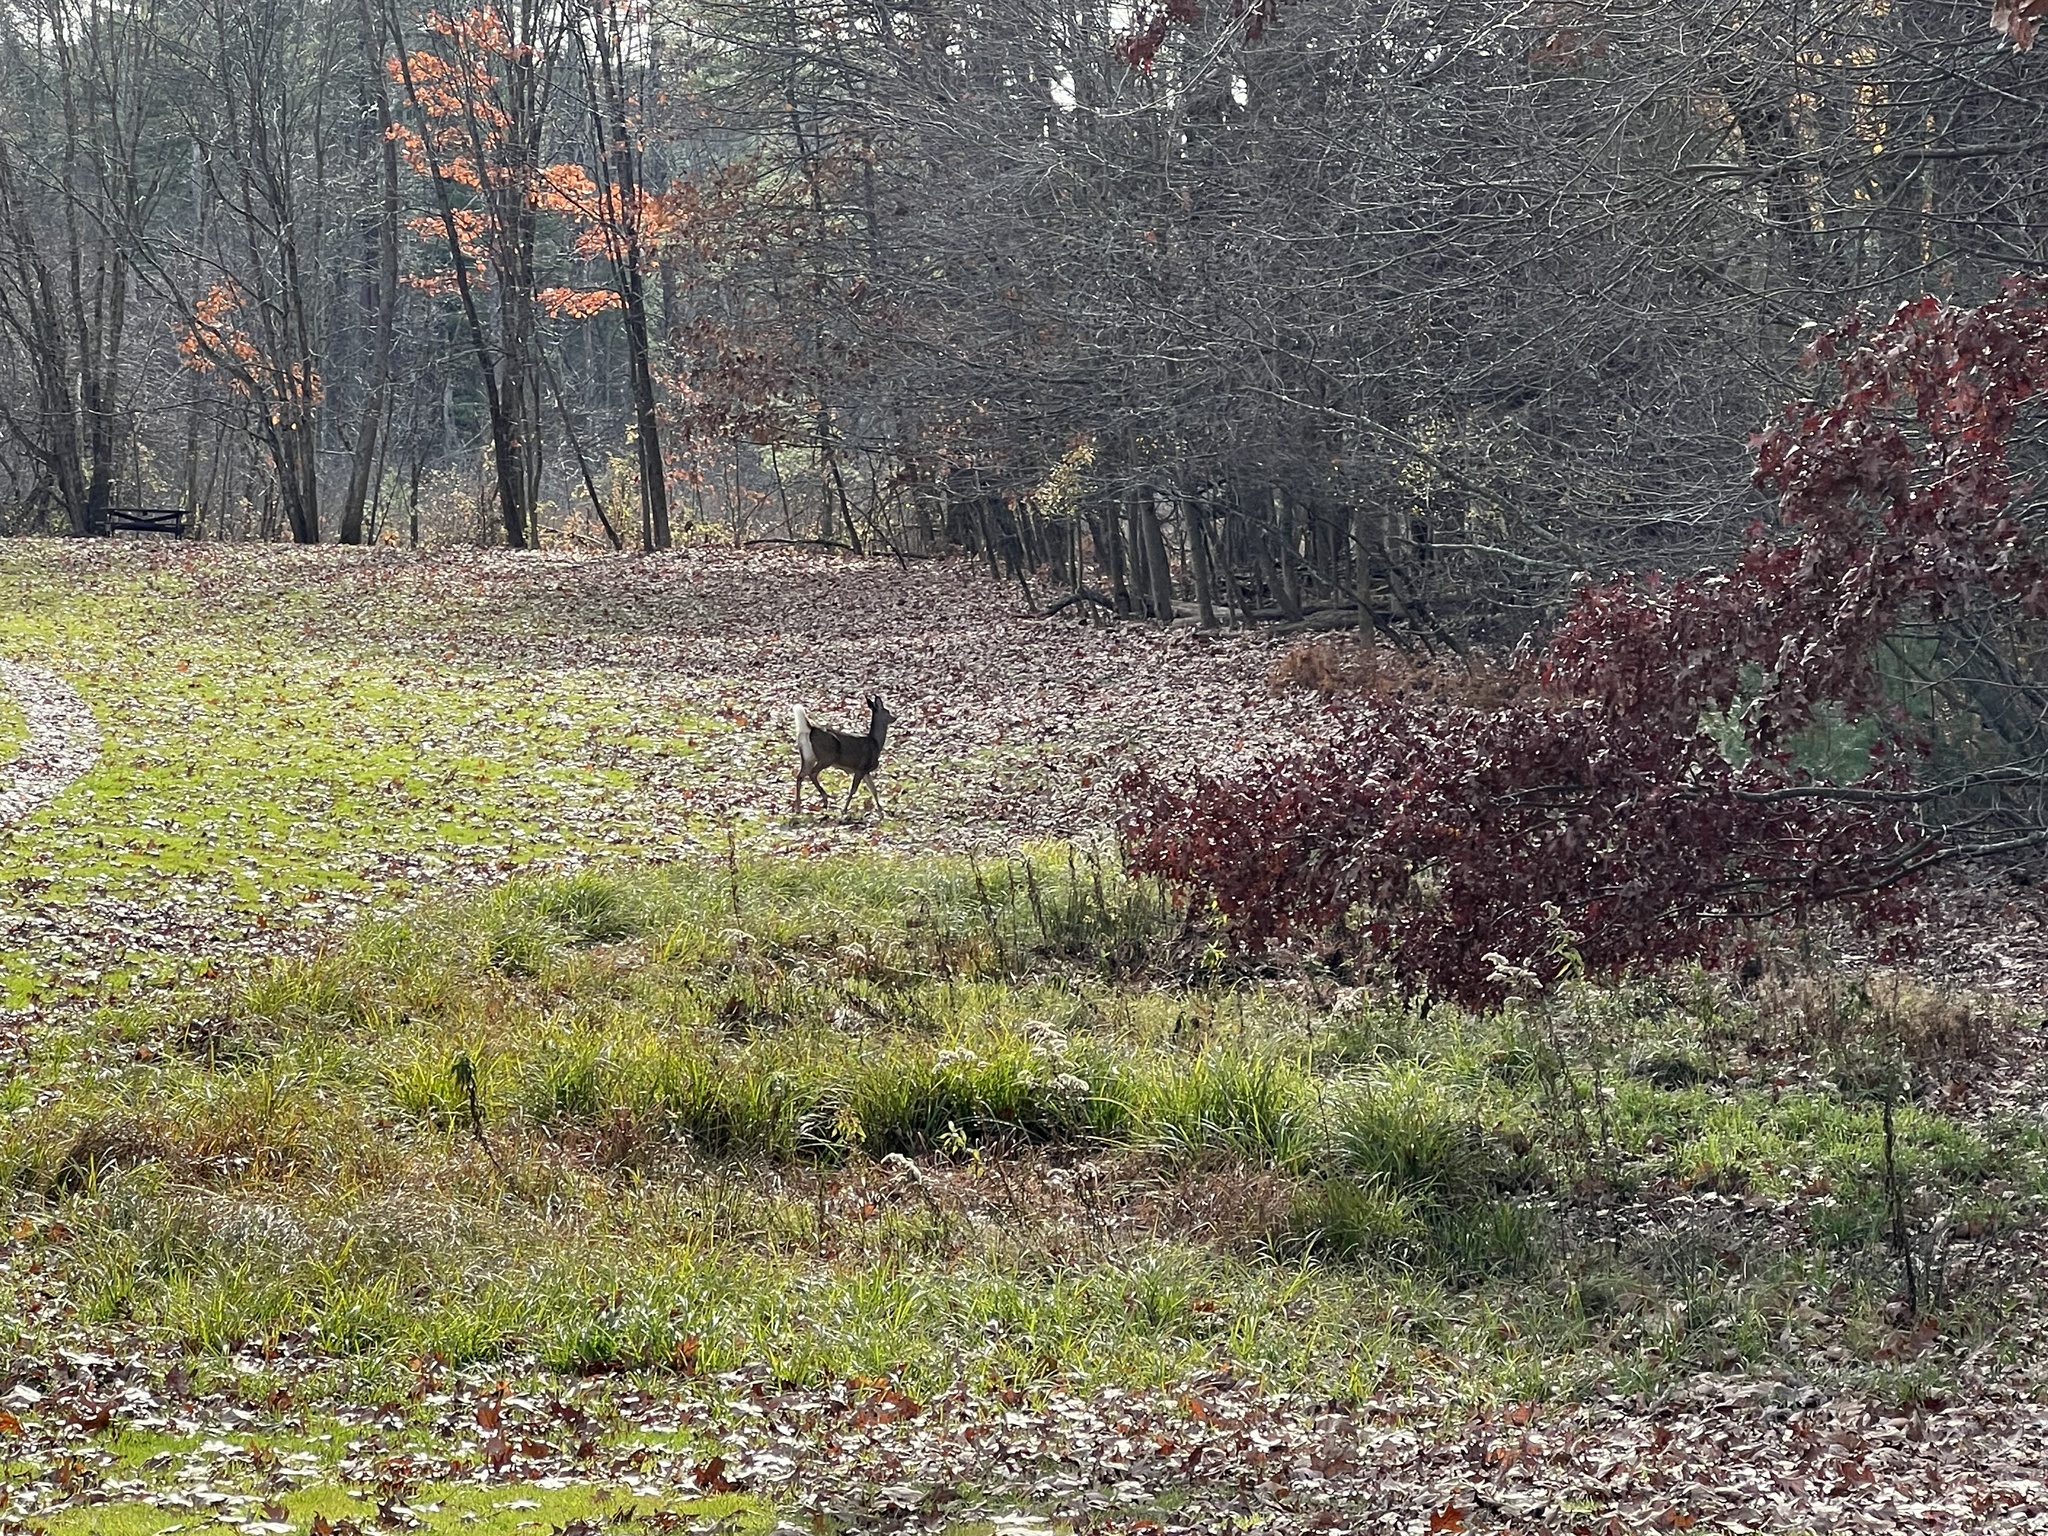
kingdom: Animalia
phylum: Chordata
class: Mammalia
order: Artiodactyla
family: Cervidae
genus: Odocoileus
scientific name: Odocoileus virginianus
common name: White-tailed deer
